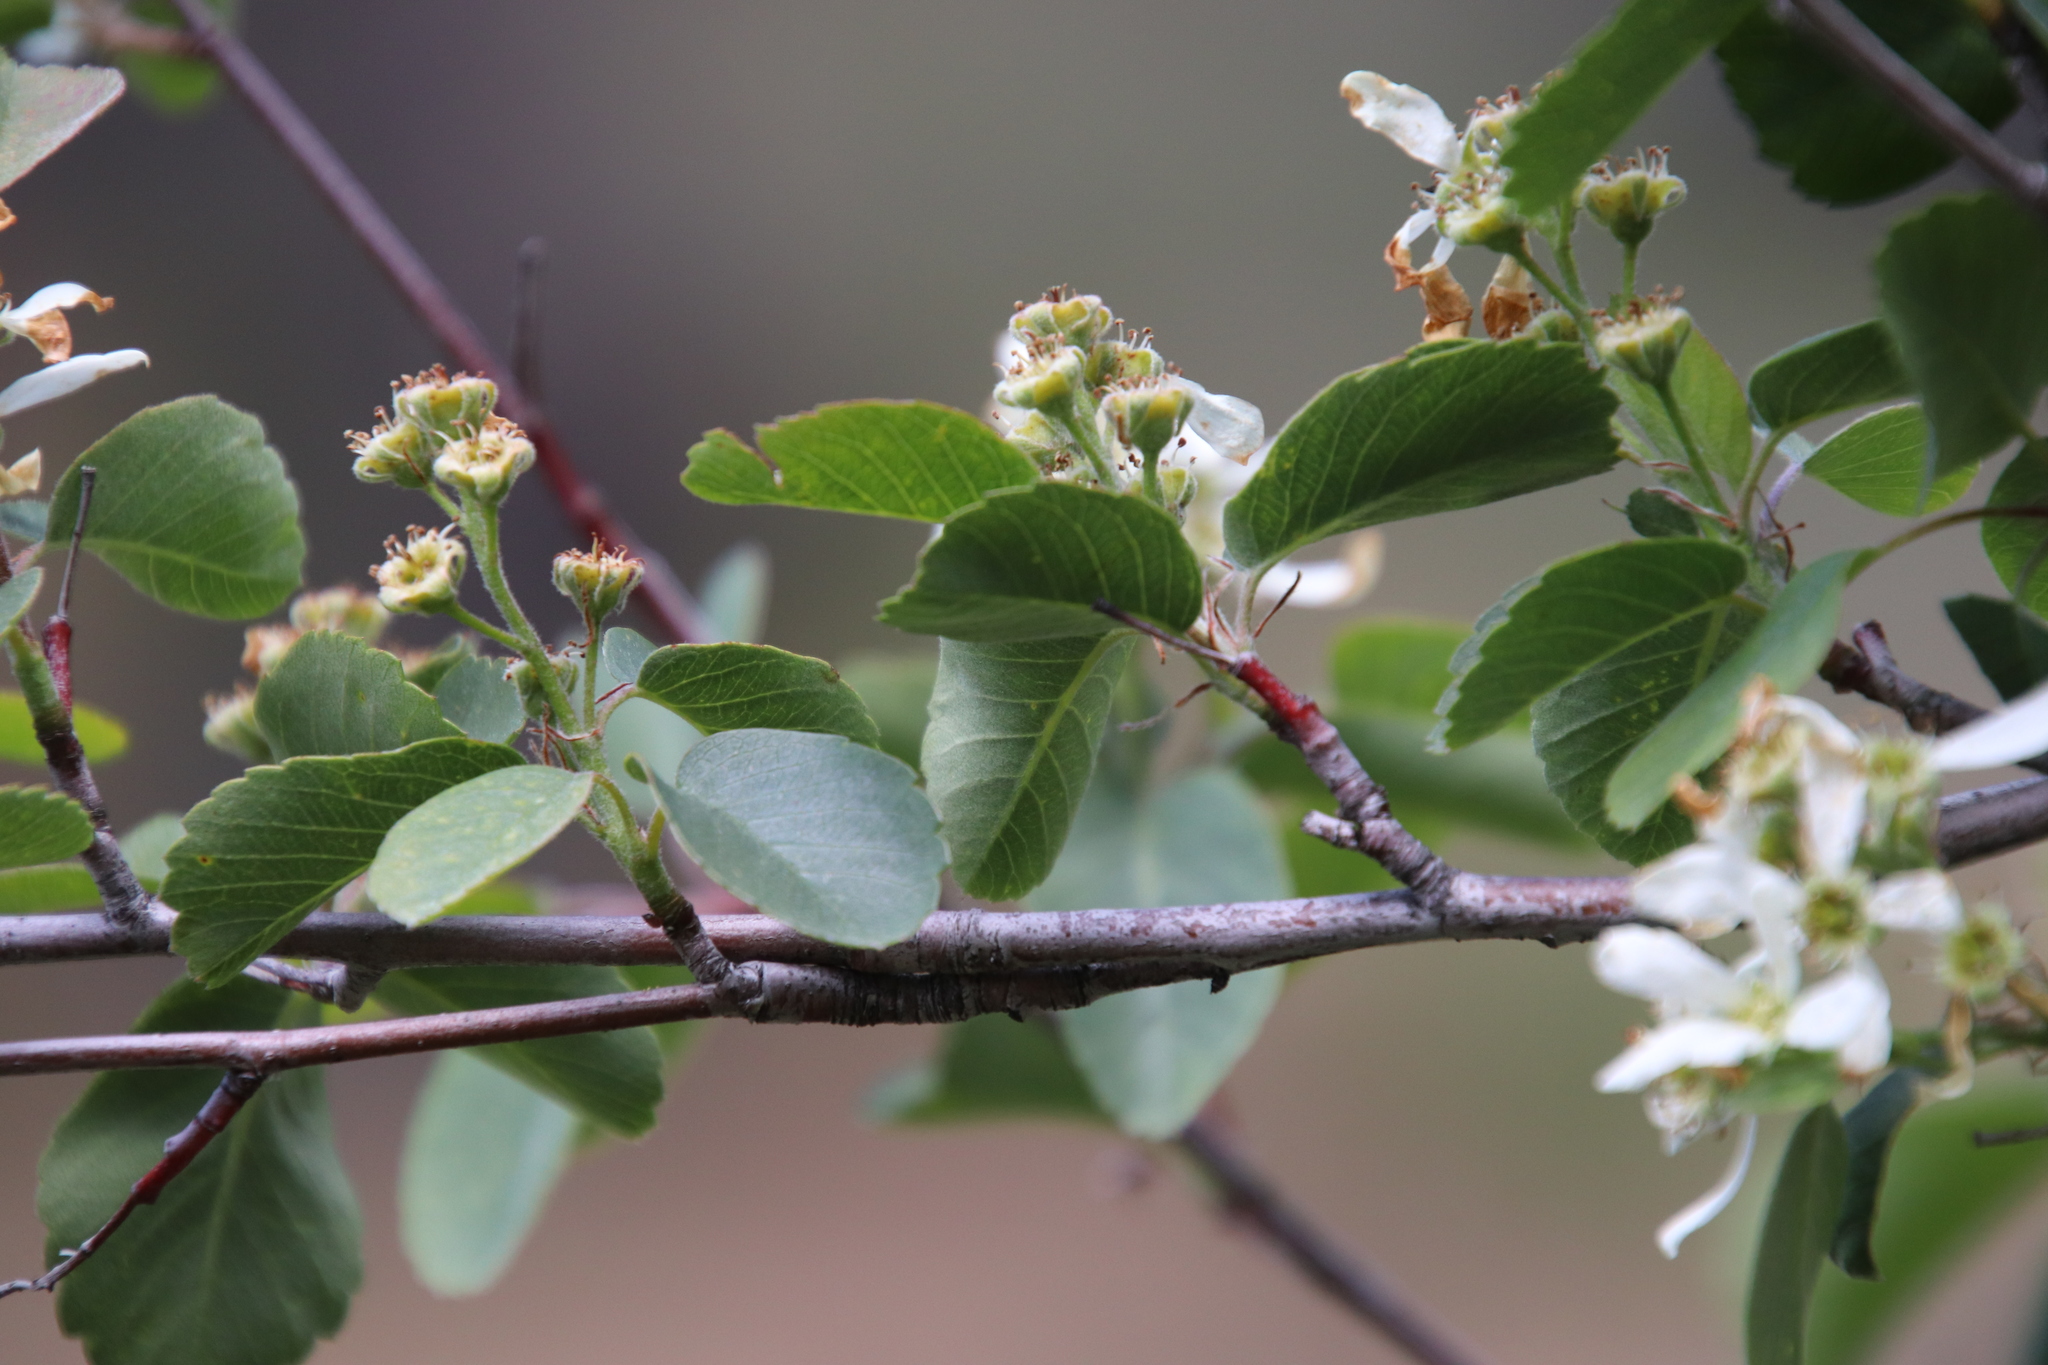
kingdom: Plantae
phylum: Tracheophyta
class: Magnoliopsida
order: Rosales
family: Rosaceae
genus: Amelanchier
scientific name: Amelanchier utahensis
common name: Utah serviceberry
